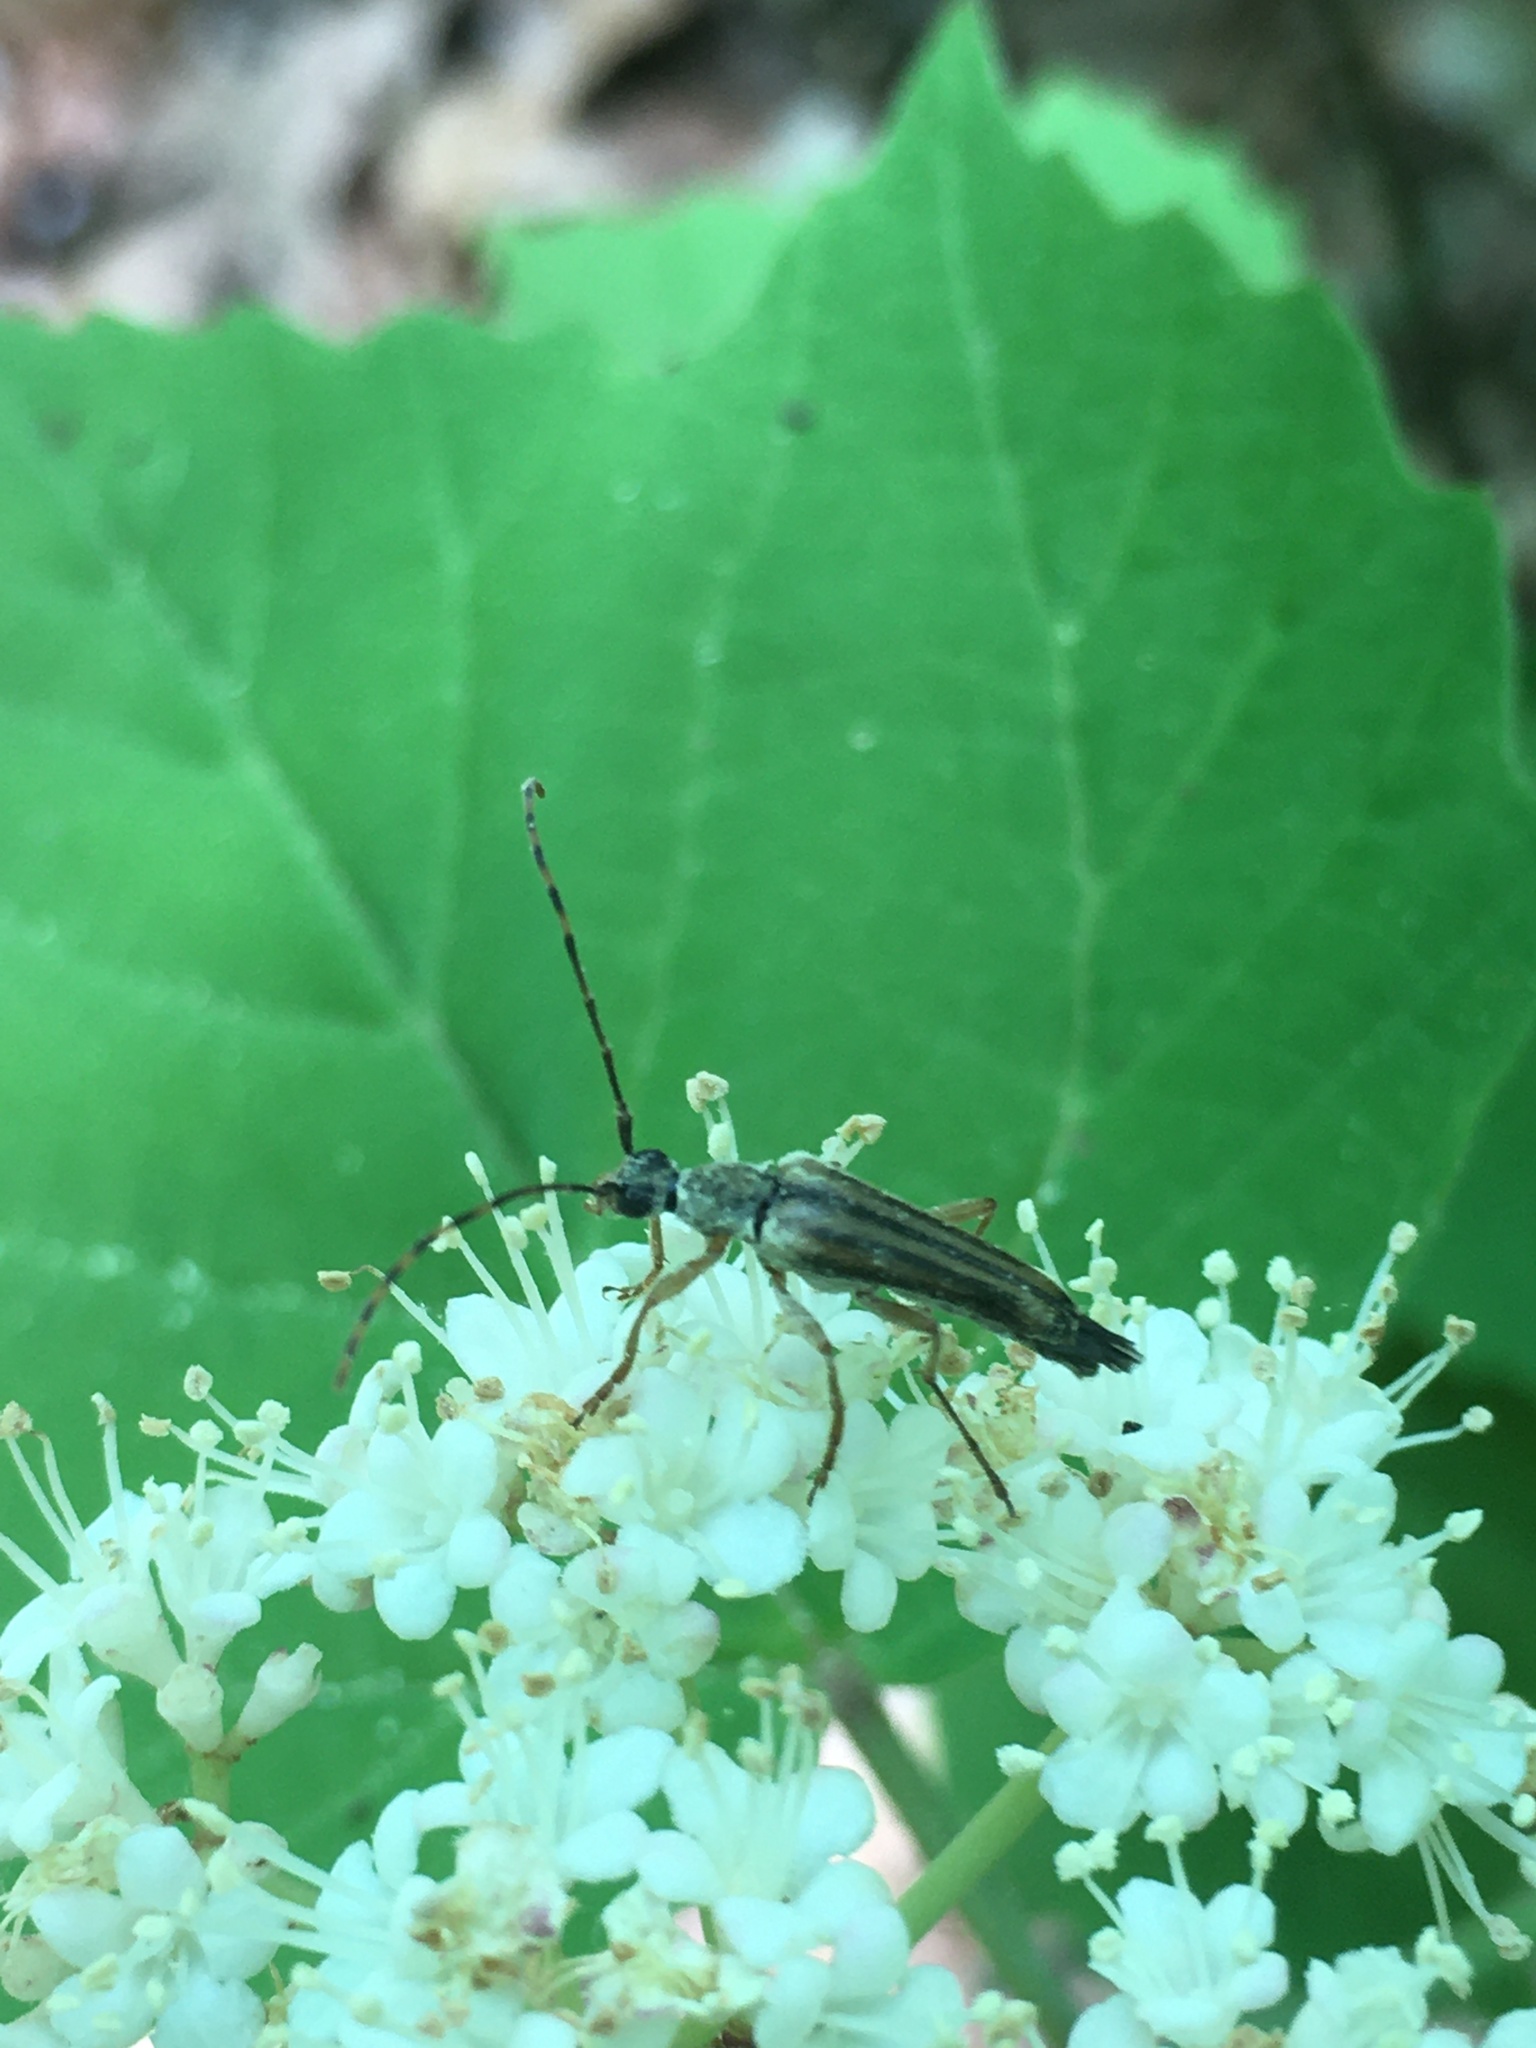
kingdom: Animalia
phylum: Arthropoda
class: Insecta
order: Coleoptera
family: Cerambycidae
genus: Analeptura
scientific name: Analeptura lineola
